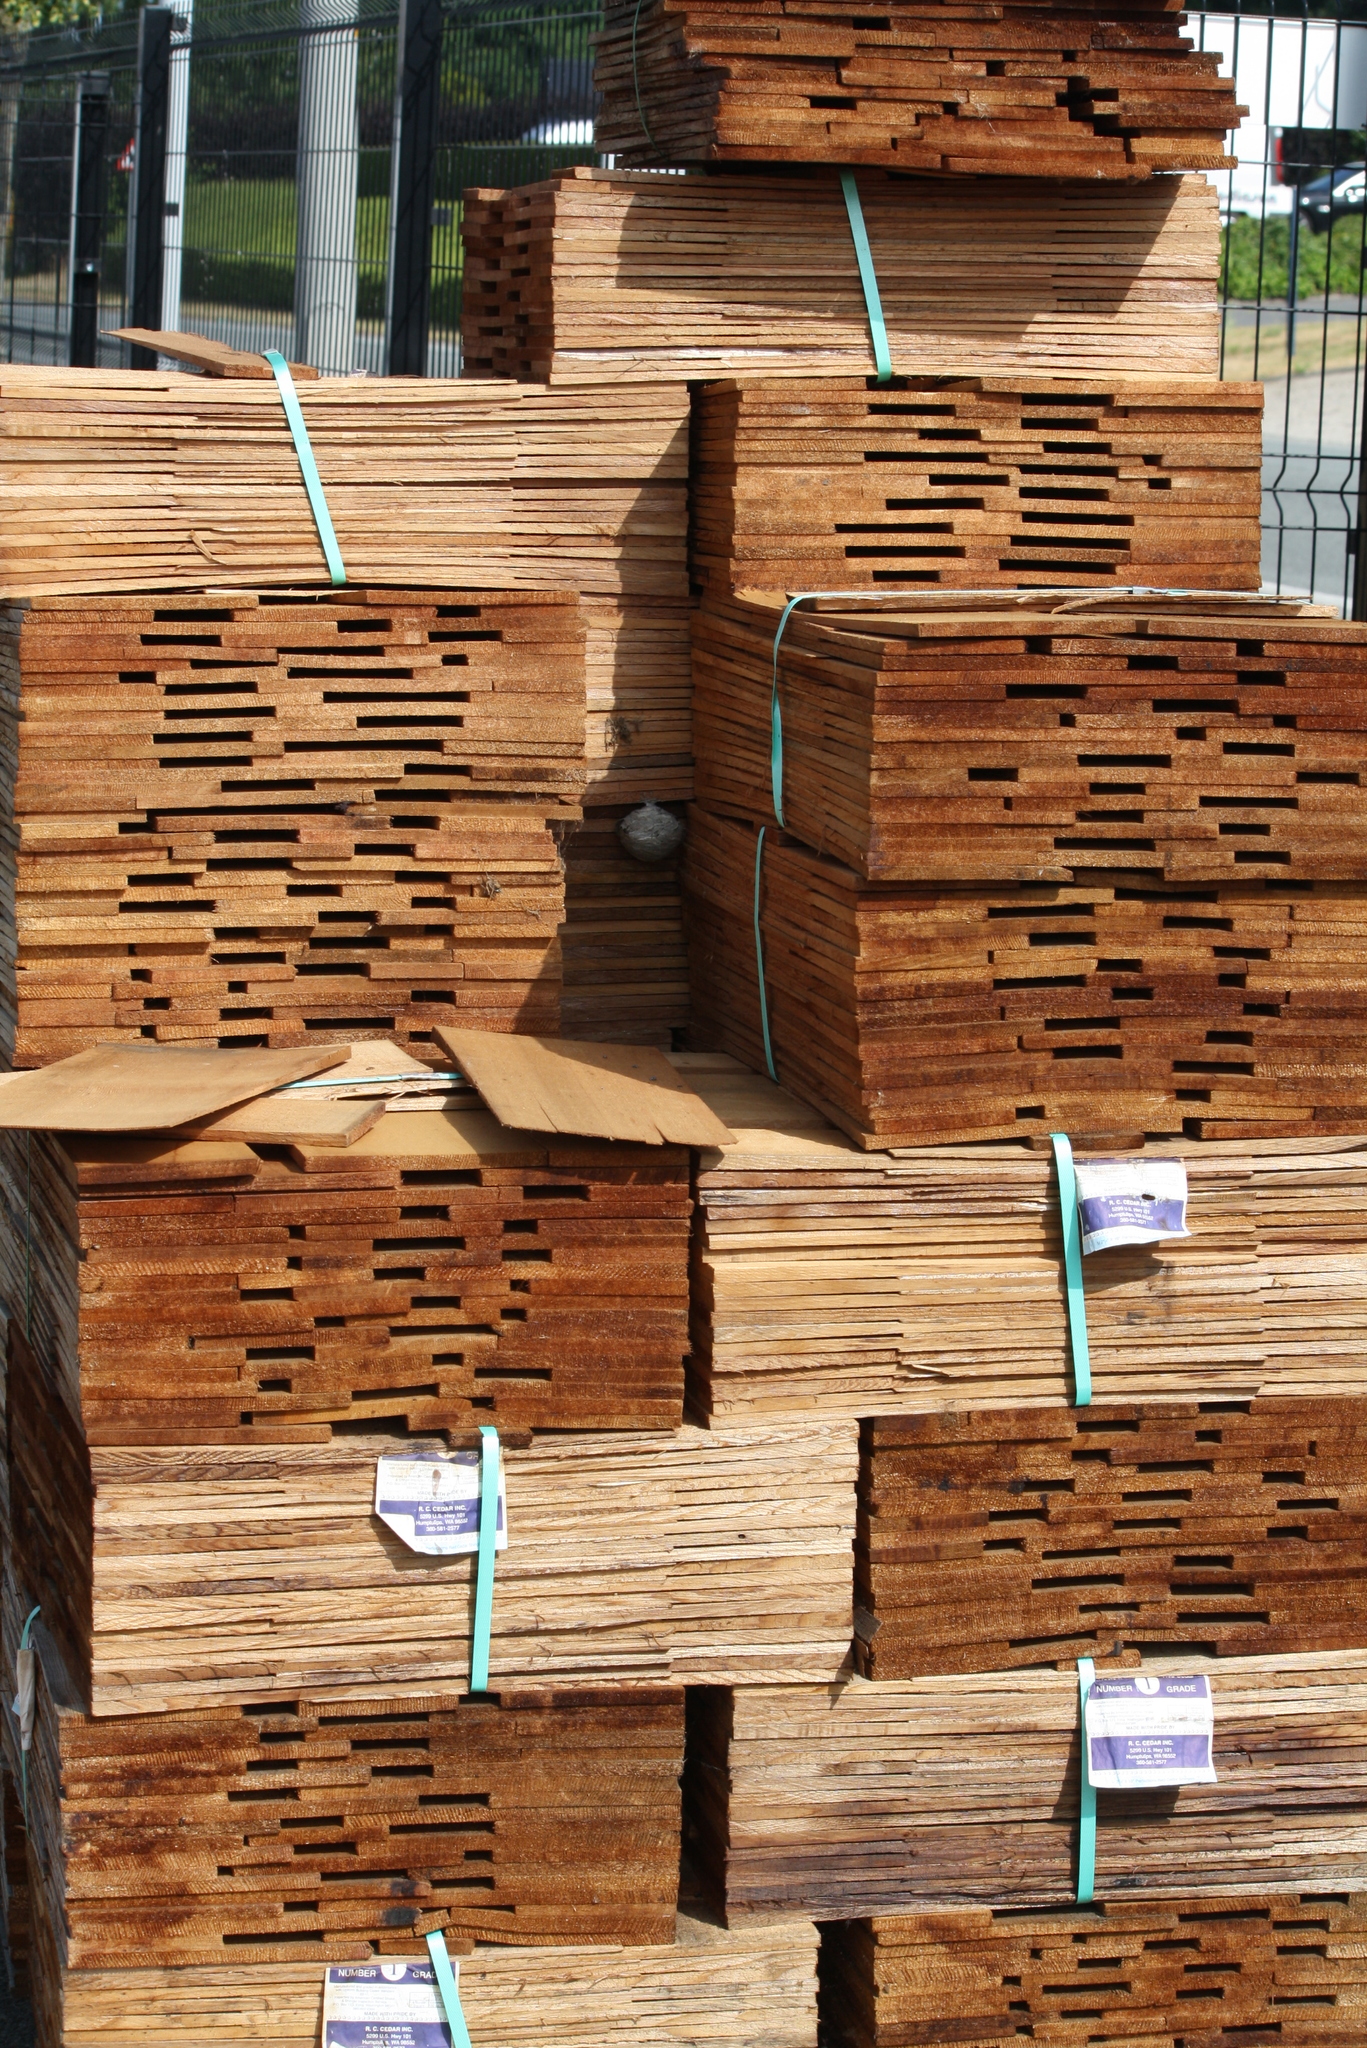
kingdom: Animalia
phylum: Arthropoda
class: Insecta
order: Hymenoptera
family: Vespidae
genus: Vespula
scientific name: Vespula germanica
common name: German wasp
